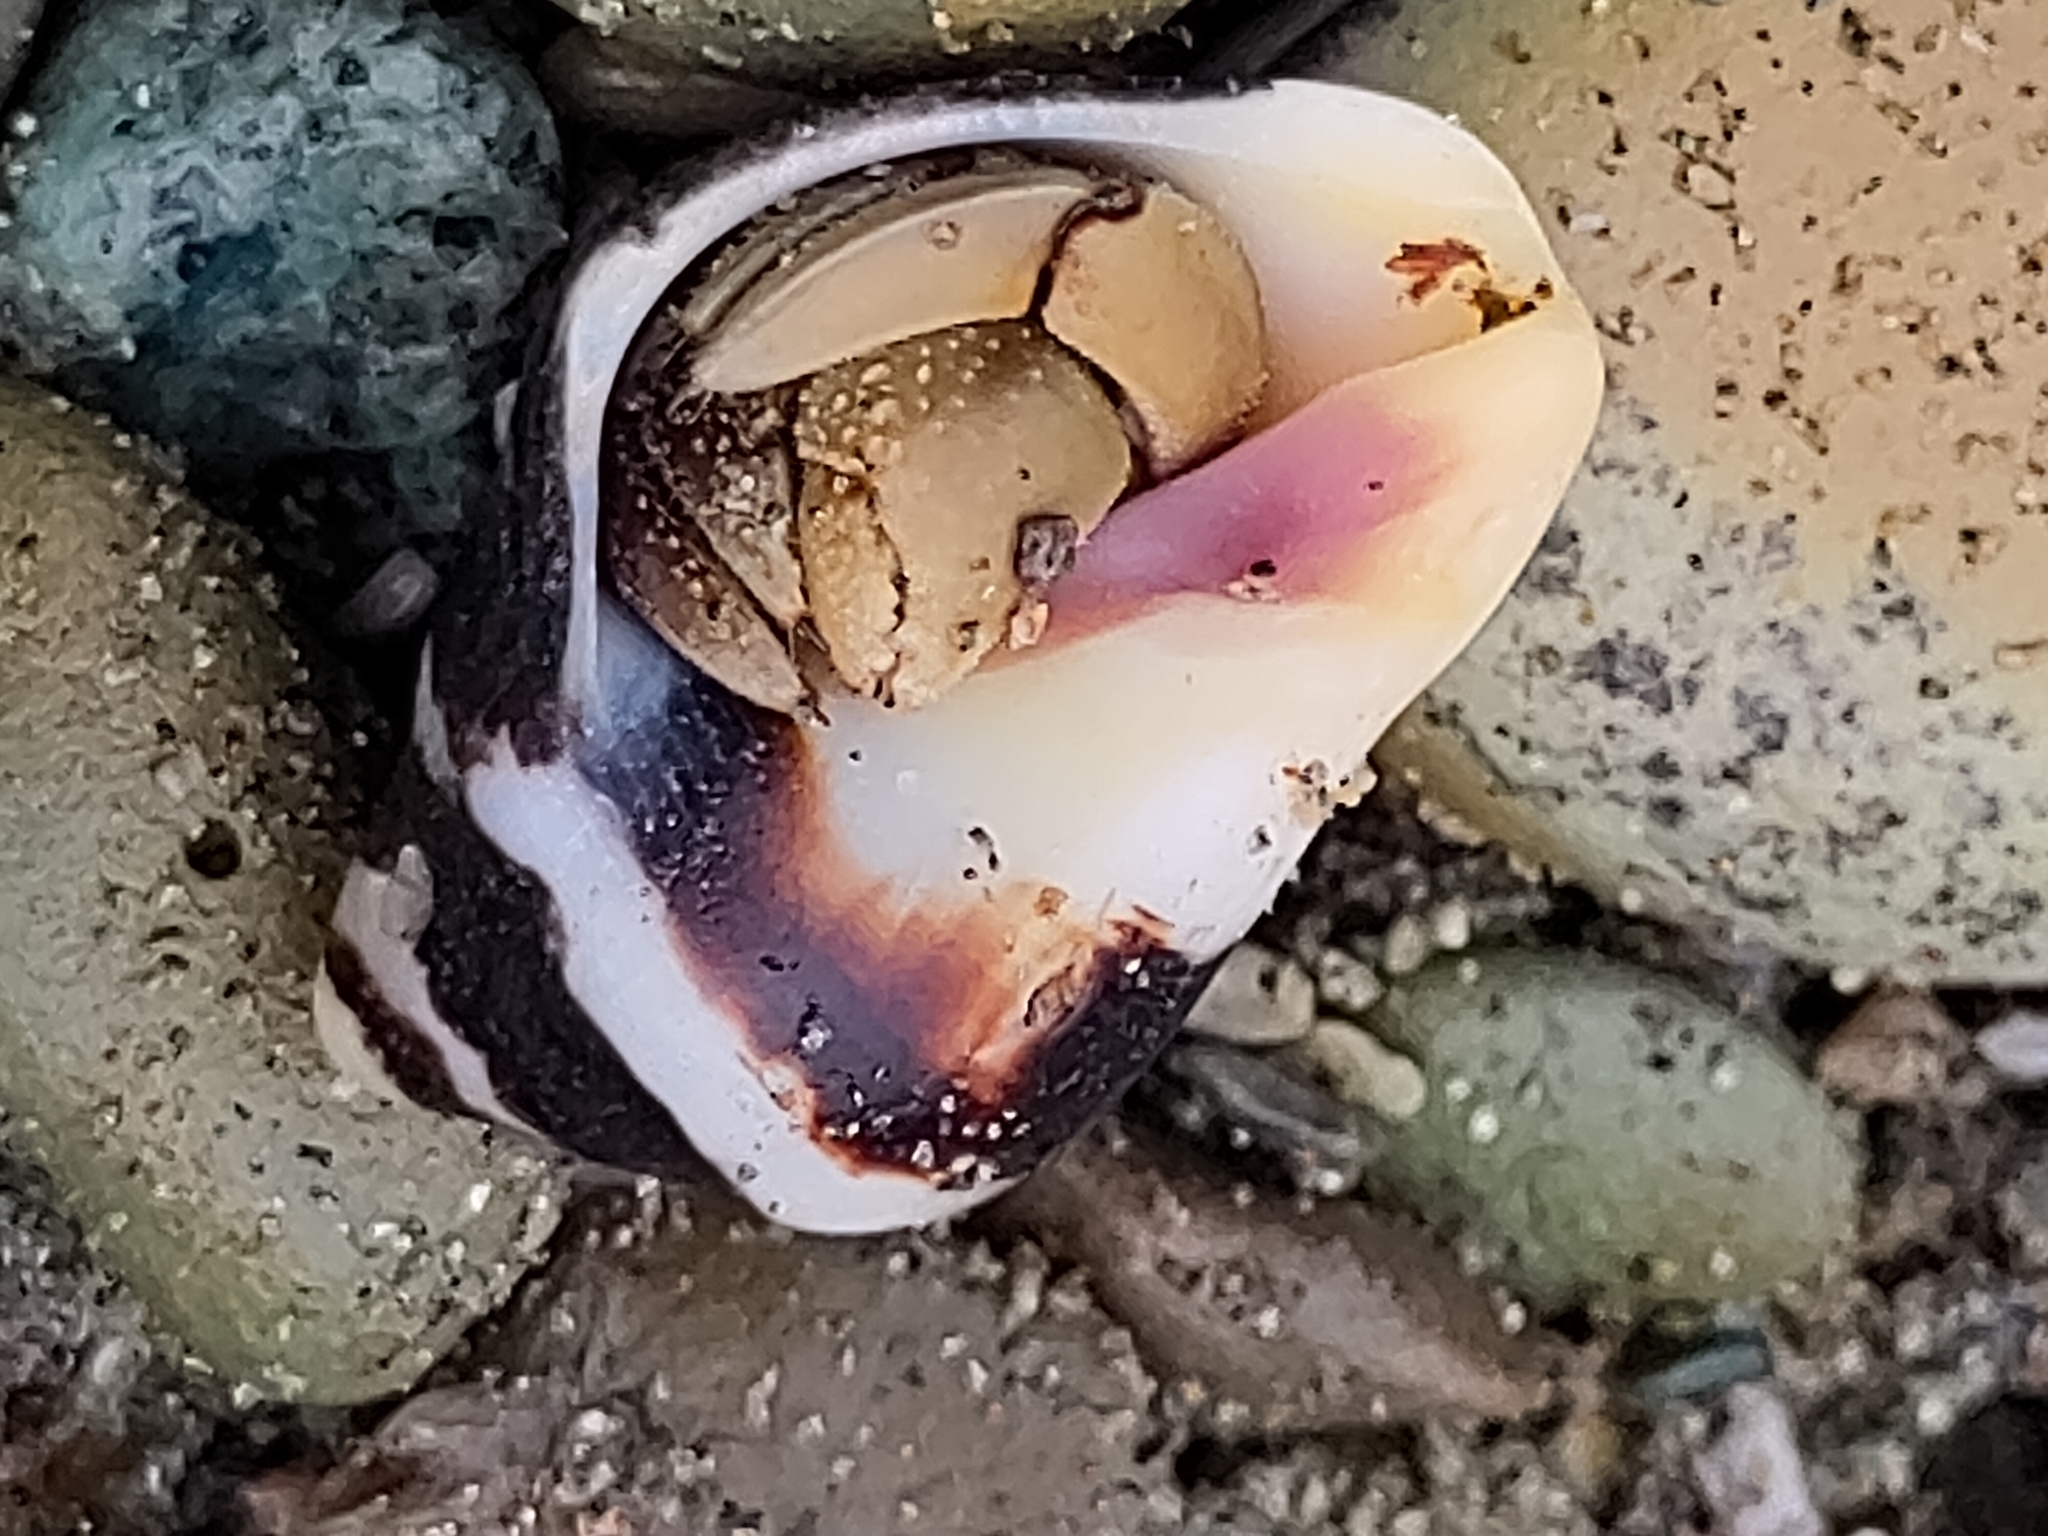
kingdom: Animalia
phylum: Arthropoda
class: Malacostraca
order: Decapoda
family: Coenobitidae
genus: Coenobita
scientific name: Coenobita compressus
